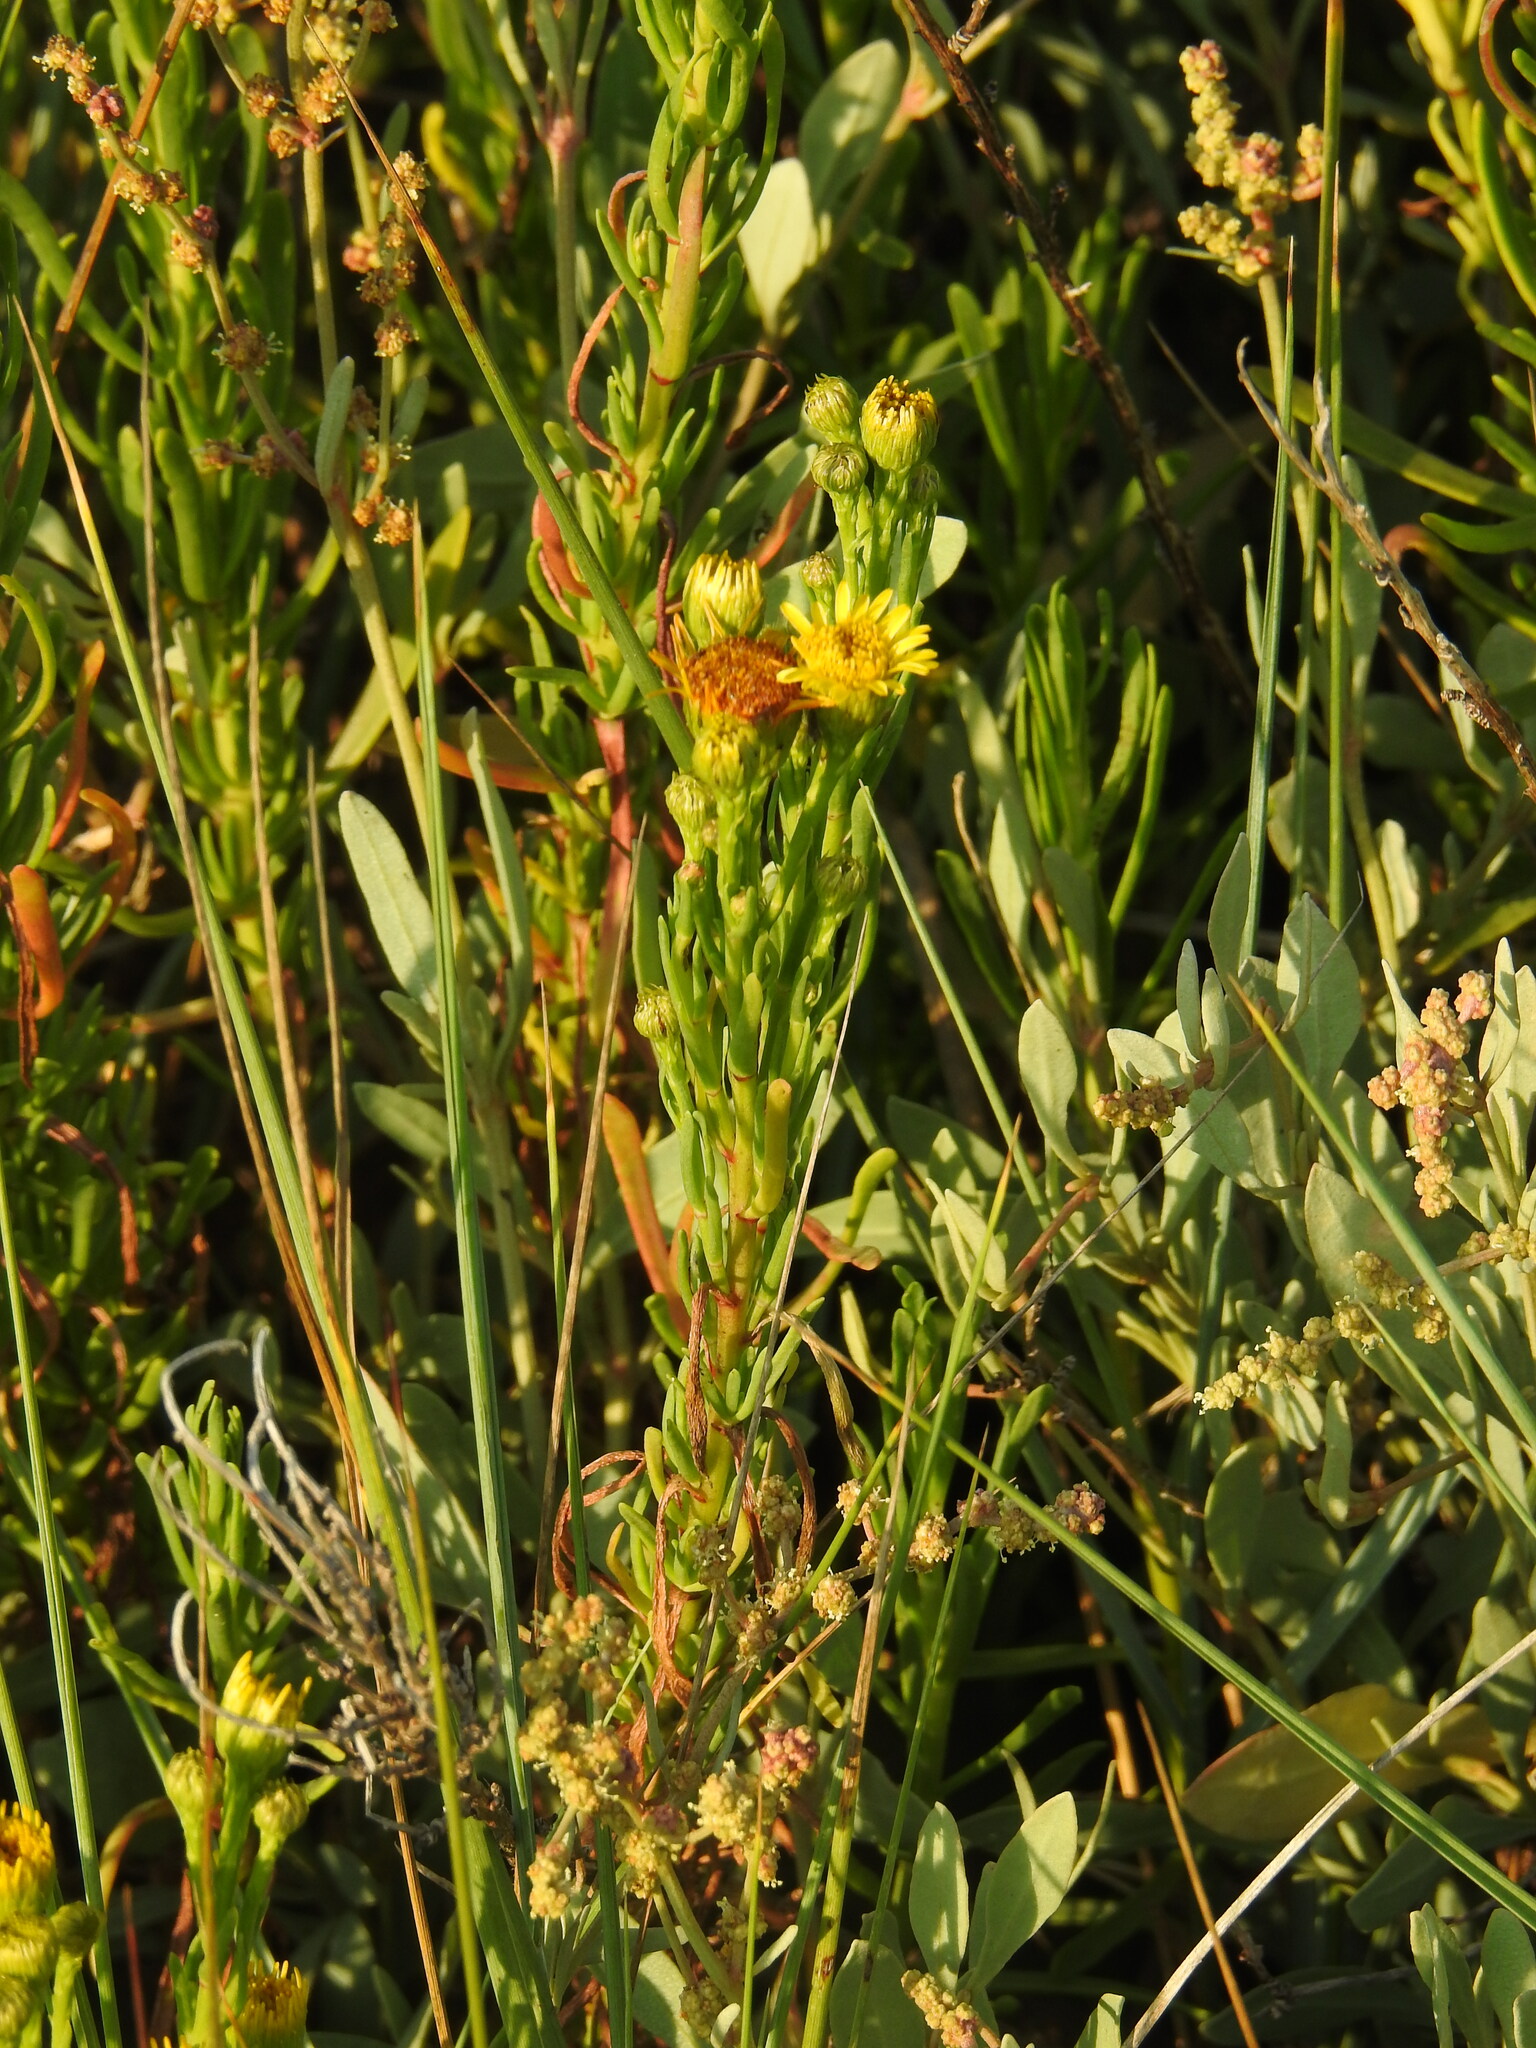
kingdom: Plantae
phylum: Tracheophyta
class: Magnoliopsida
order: Asterales
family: Asteraceae
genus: Limbarda
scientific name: Limbarda crithmoides
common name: Golden samphire
